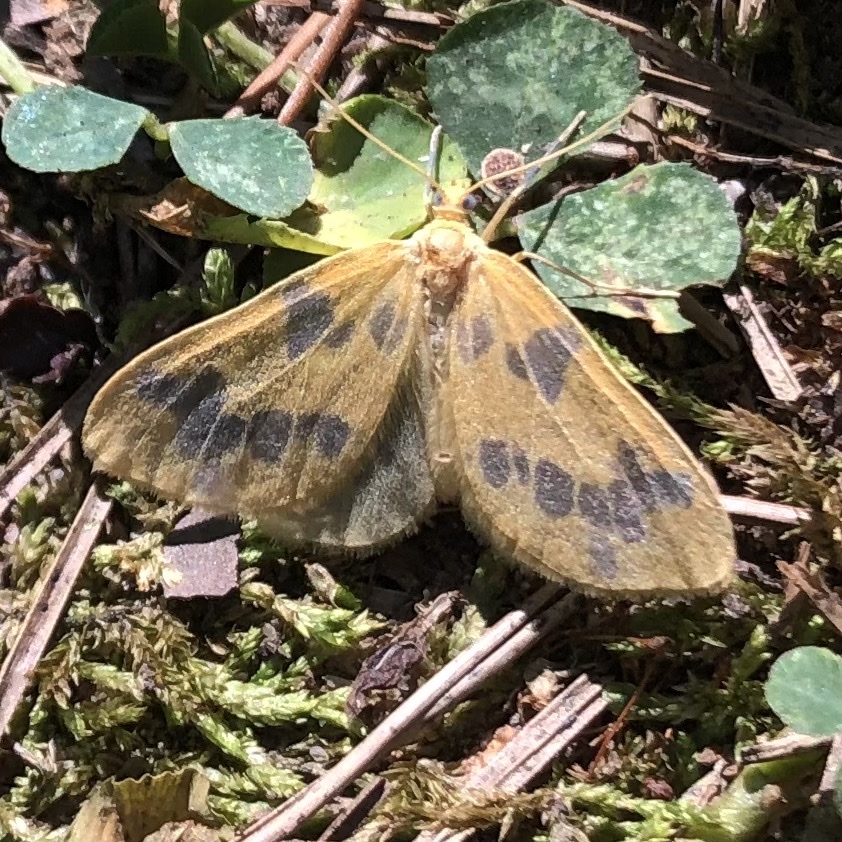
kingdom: Animalia
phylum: Arthropoda
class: Insecta
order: Lepidoptera
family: Geometridae
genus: Eubaphe
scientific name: Eubaphe mendica
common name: Beggar
